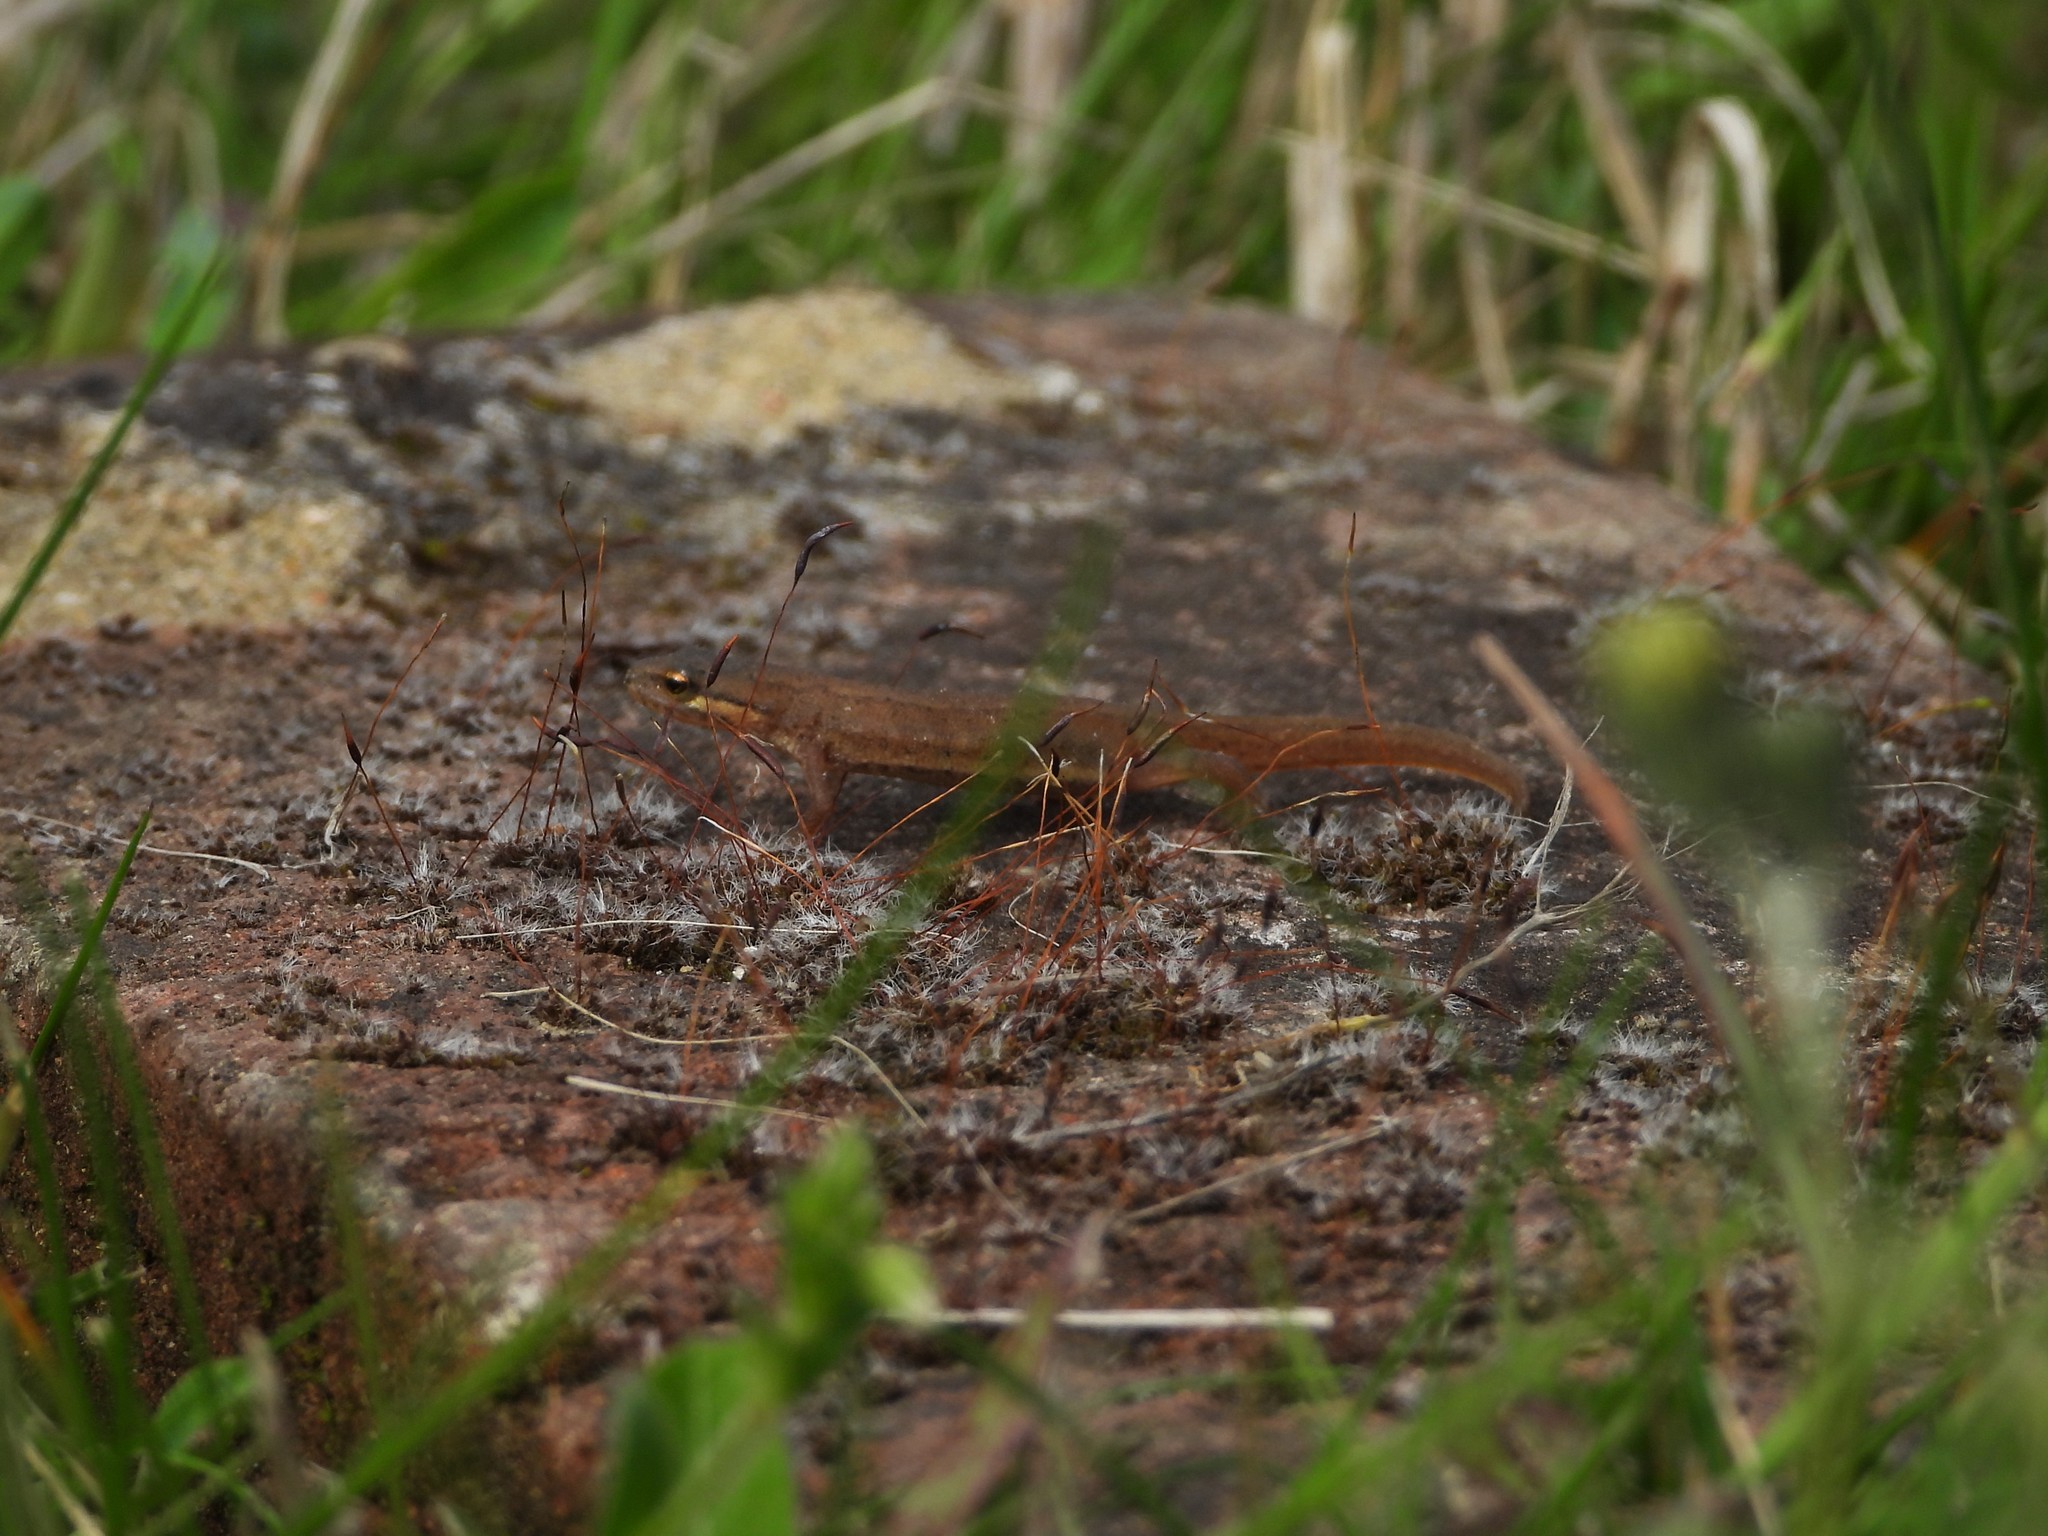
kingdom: Animalia
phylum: Chordata
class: Amphibia
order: Caudata
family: Salamandridae
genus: Lissotriton
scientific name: Lissotriton vulgaris
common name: Smooth newt
